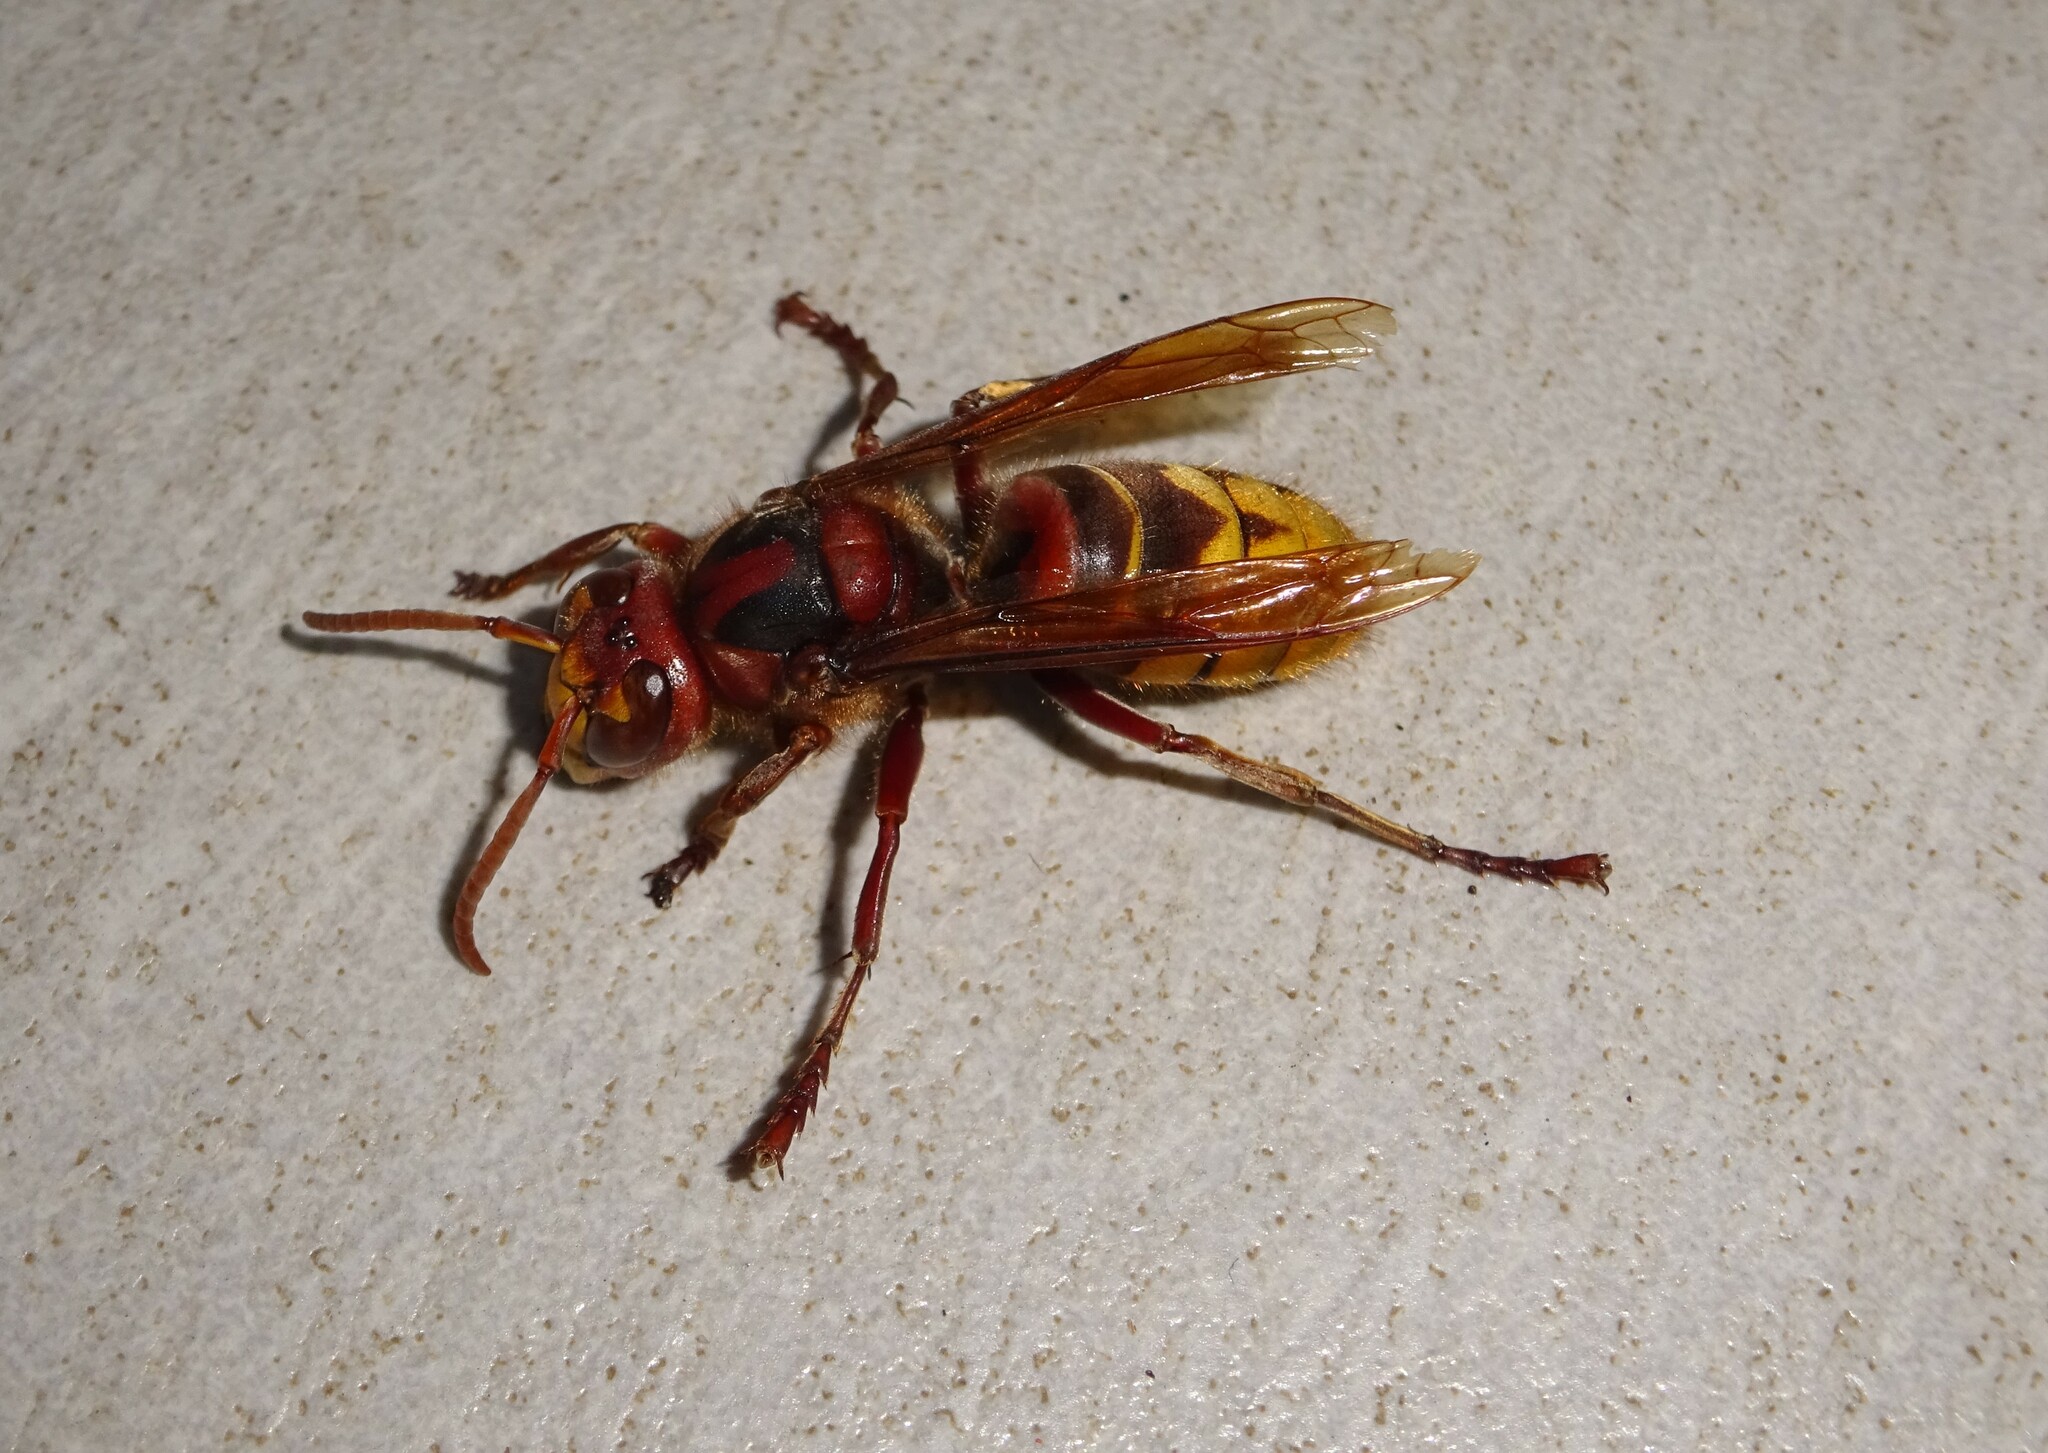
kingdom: Animalia
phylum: Arthropoda
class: Insecta
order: Hymenoptera
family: Vespidae
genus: Vespa
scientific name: Vespa crabro
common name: Hornet
